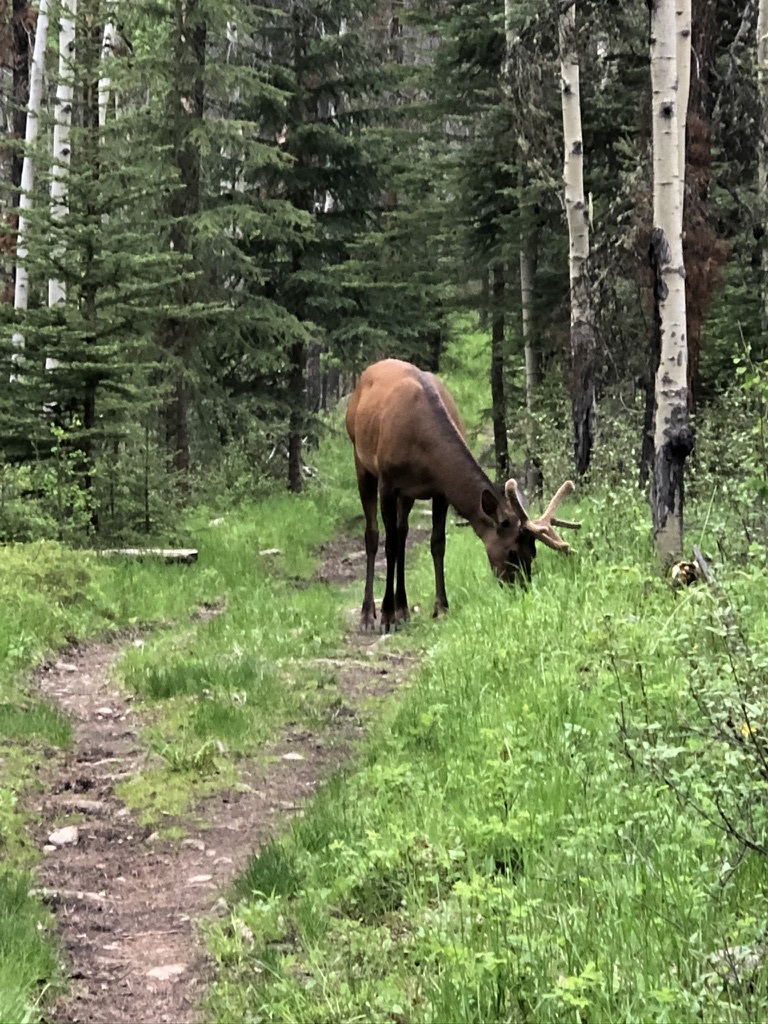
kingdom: Animalia
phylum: Chordata
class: Mammalia
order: Artiodactyla
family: Cervidae
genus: Cervus
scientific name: Cervus elaphus
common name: Red deer
